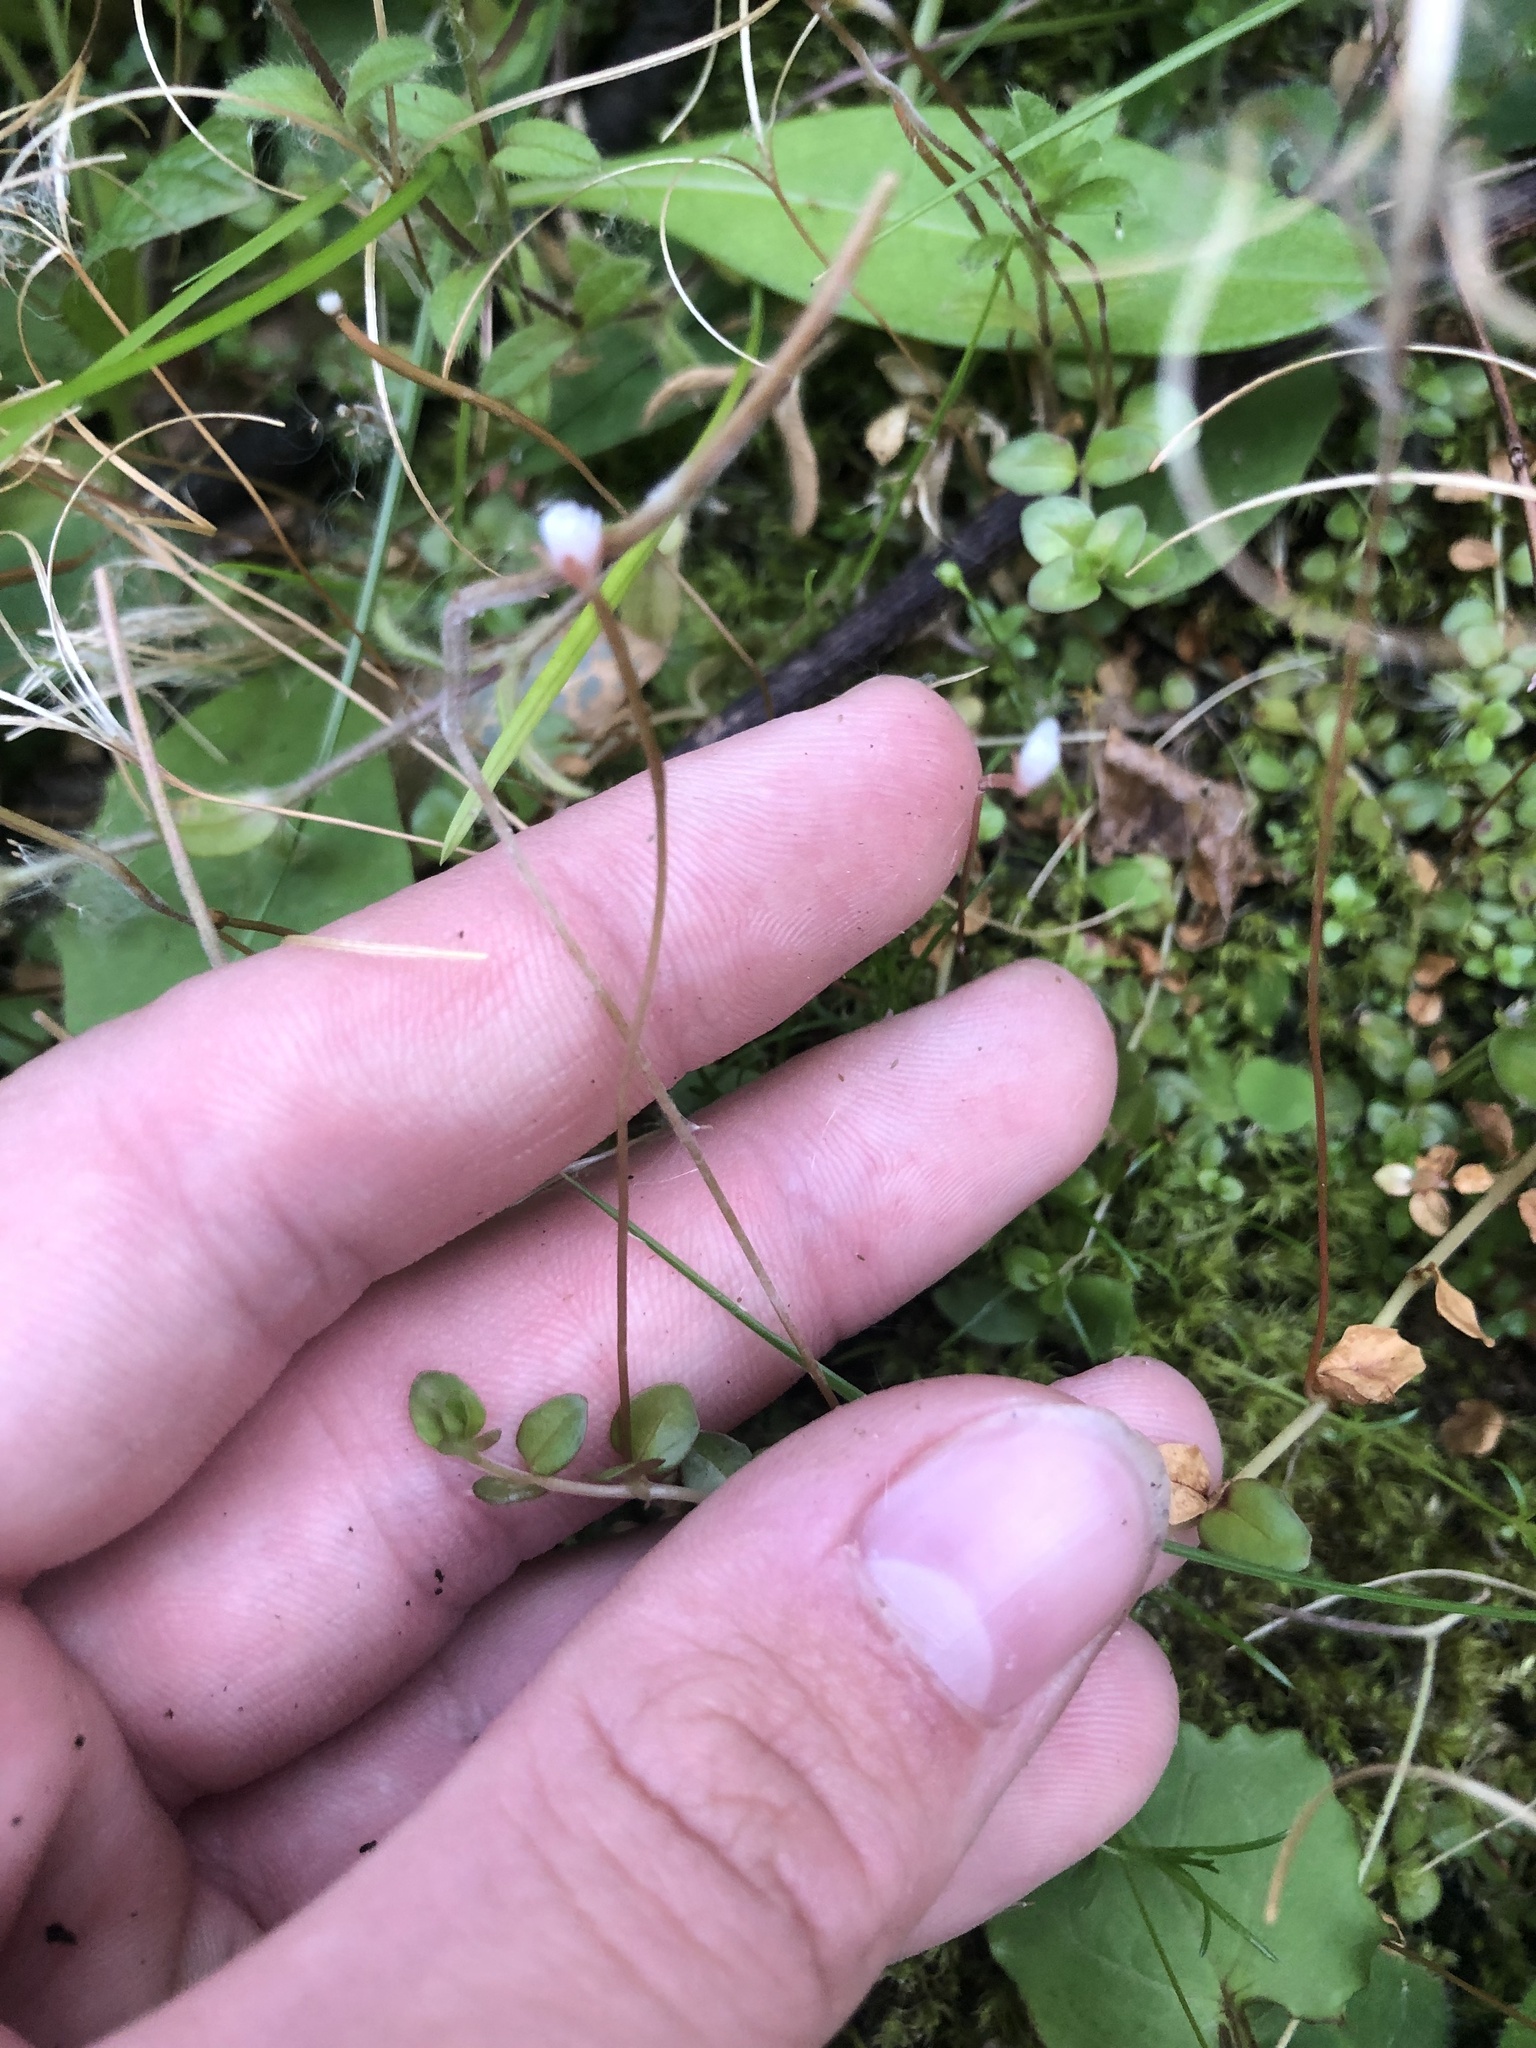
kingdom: Plantae
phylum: Tracheophyta
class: Magnoliopsida
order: Myrtales
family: Onagraceae
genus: Epilobium
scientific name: Epilobium brunnescens
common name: New zealand willowherb
